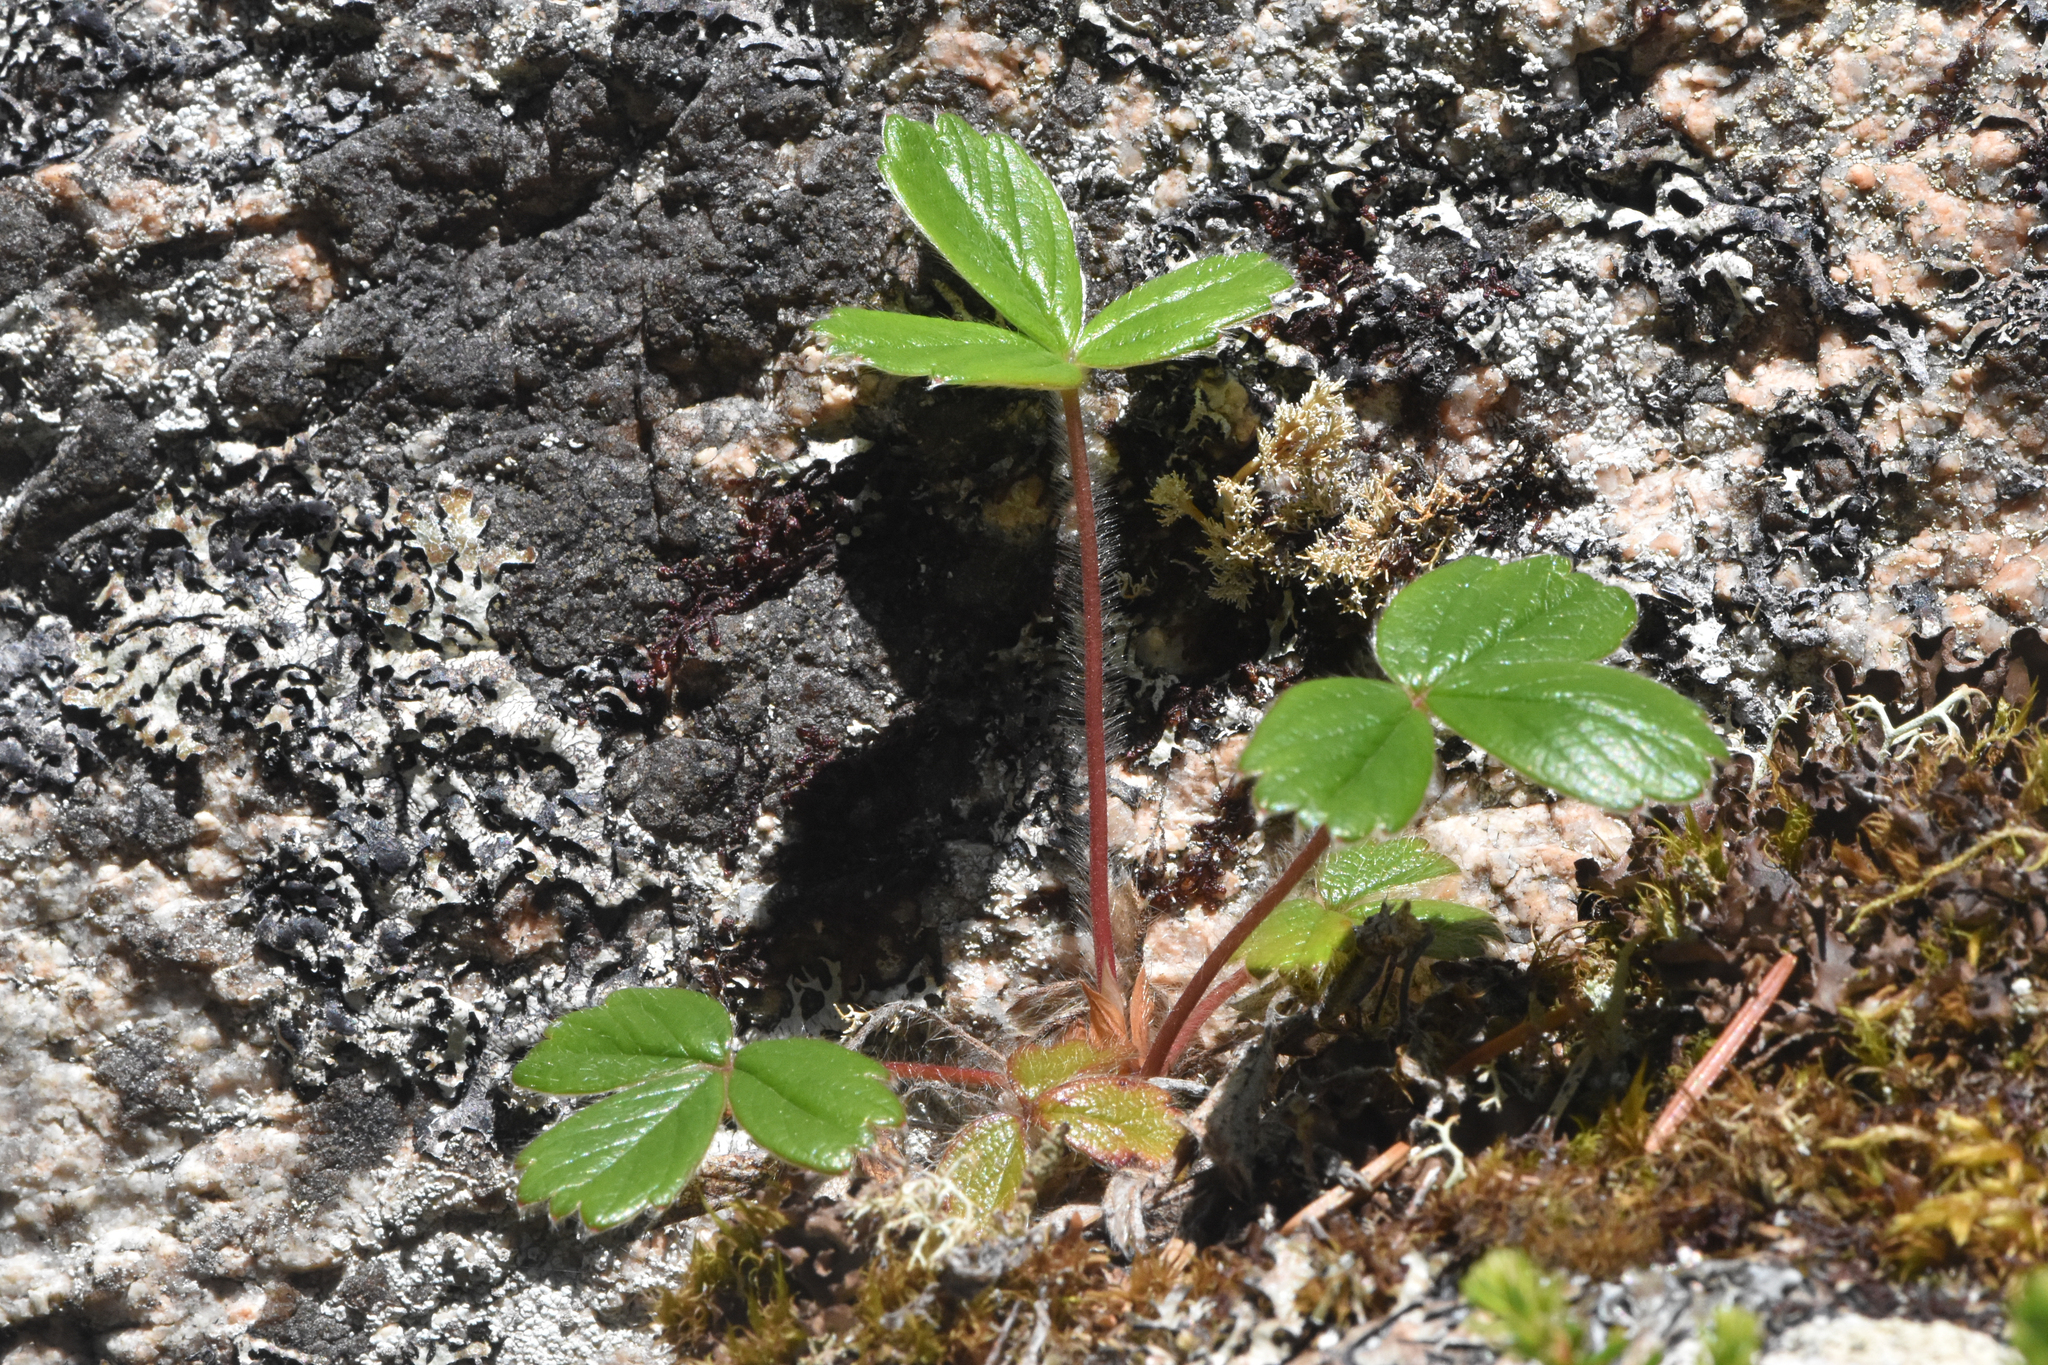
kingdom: Plantae
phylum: Tracheophyta
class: Magnoliopsida
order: Rosales
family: Rosaceae
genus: Fragaria
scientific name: Fragaria chiloensis
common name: Beach strawberry
